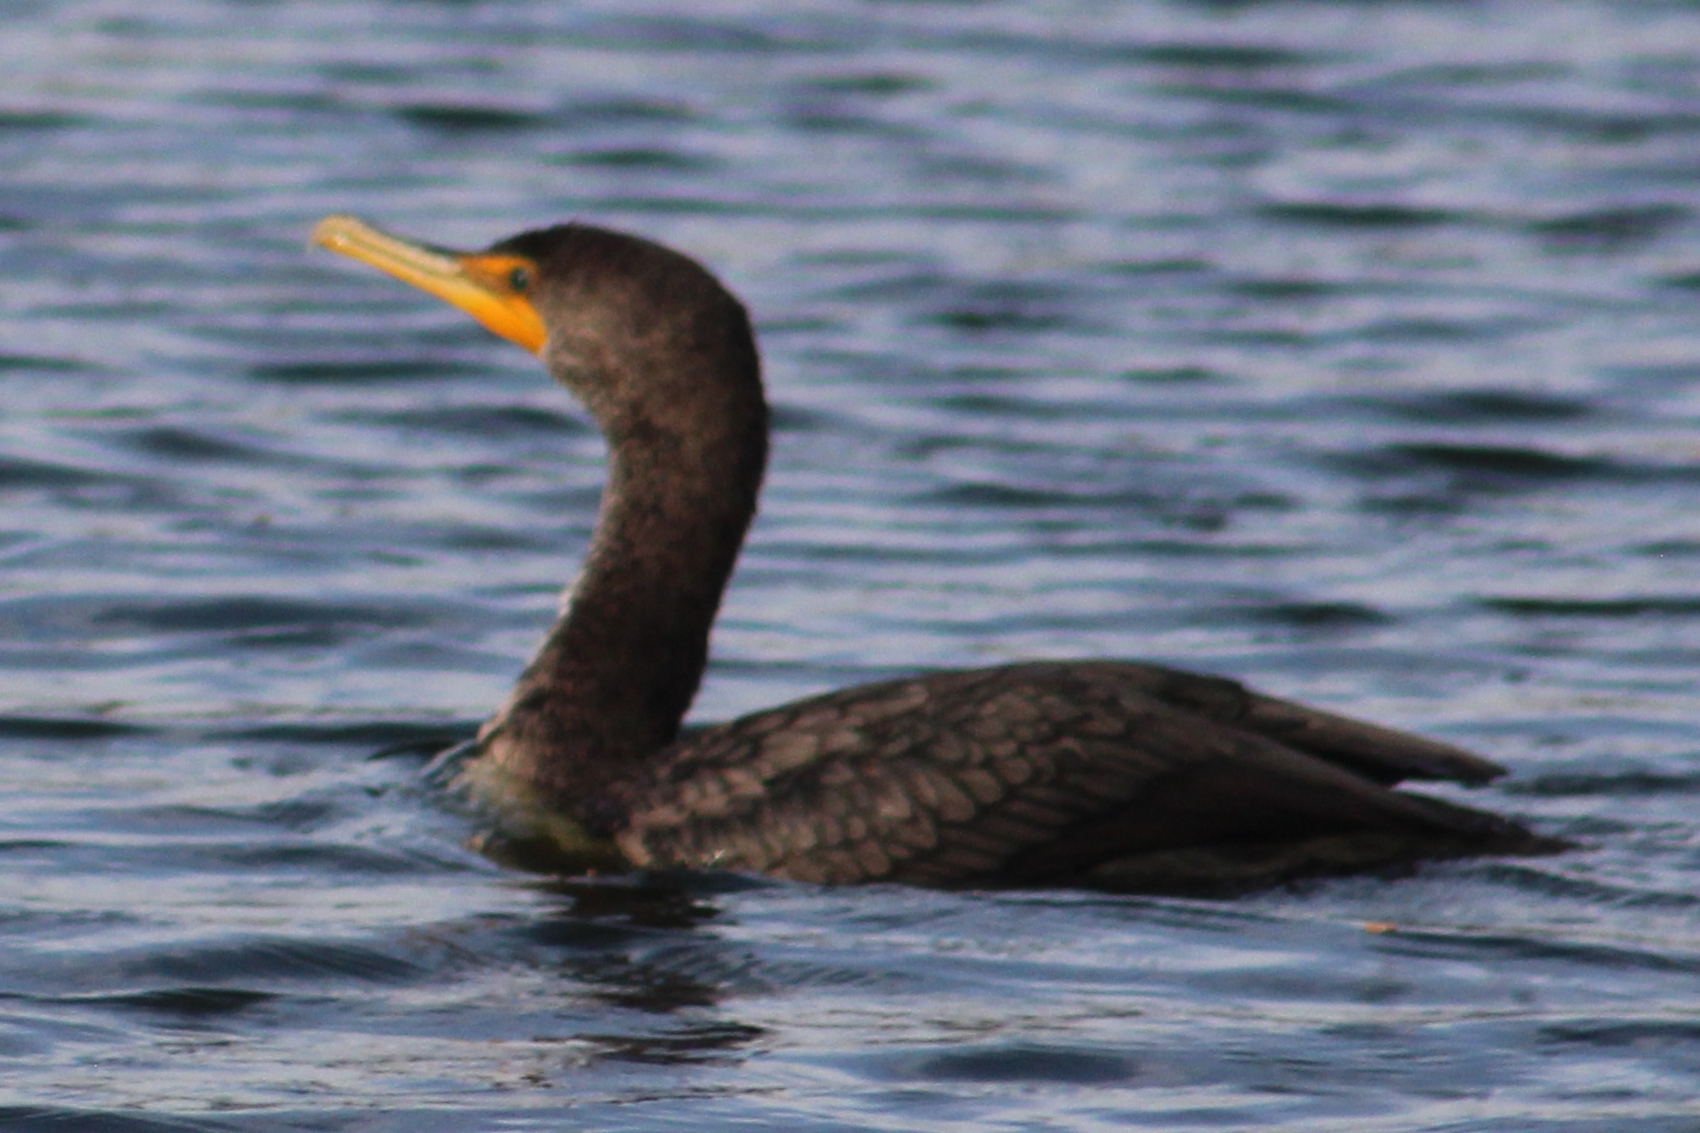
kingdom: Animalia
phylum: Chordata
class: Aves
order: Suliformes
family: Phalacrocoracidae
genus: Phalacrocorax
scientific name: Phalacrocorax auritus
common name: Double-crested cormorant
